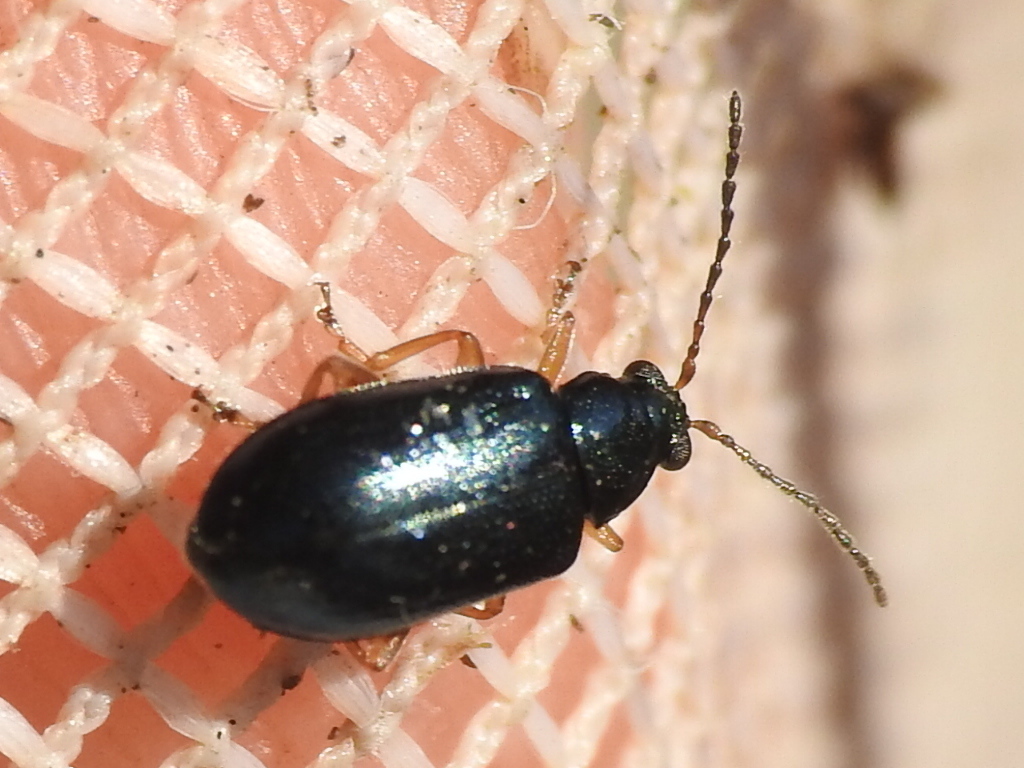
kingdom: Animalia
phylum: Arthropoda
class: Insecta
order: Coleoptera
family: Chrysomelidae
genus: Lysathia
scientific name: Lysathia ludoviciana
